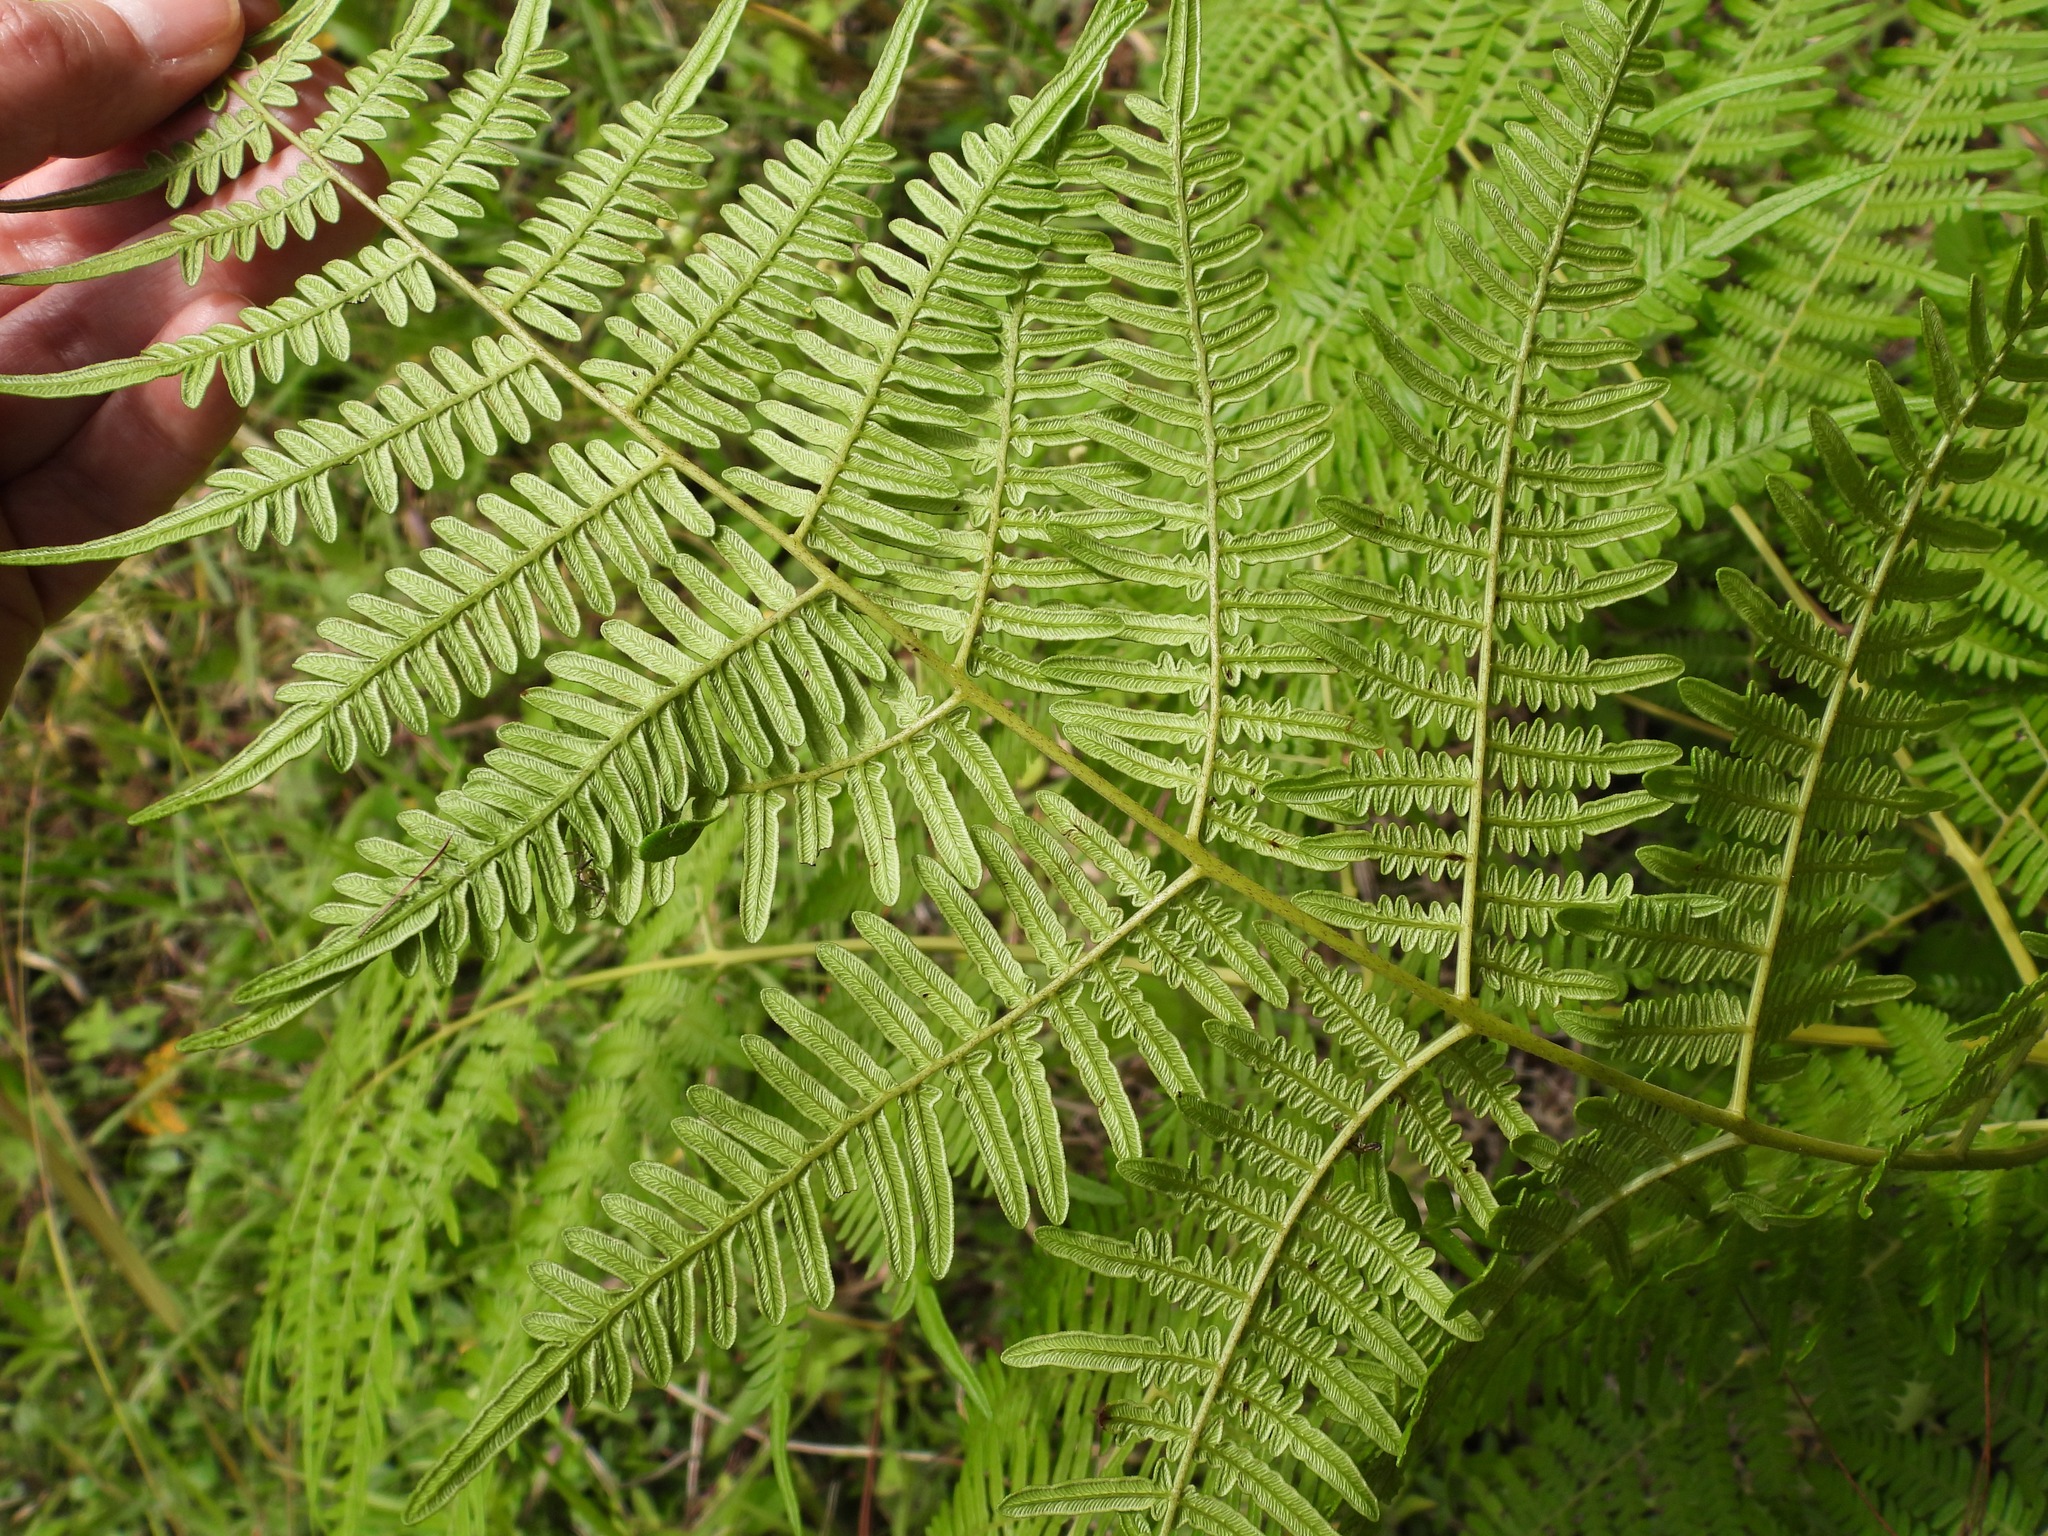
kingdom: Plantae
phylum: Tracheophyta
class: Polypodiopsida
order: Polypodiales
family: Dennstaedtiaceae
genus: Pteridium
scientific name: Pteridium aquilinum
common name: Bracken
